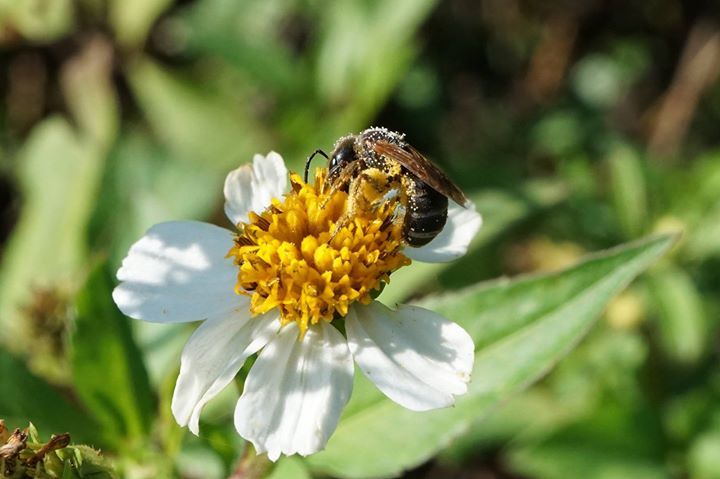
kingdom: Animalia
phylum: Arthropoda
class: Insecta
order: Hymenoptera
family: Halictidae
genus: Halictus
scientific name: Halictus poeyi
